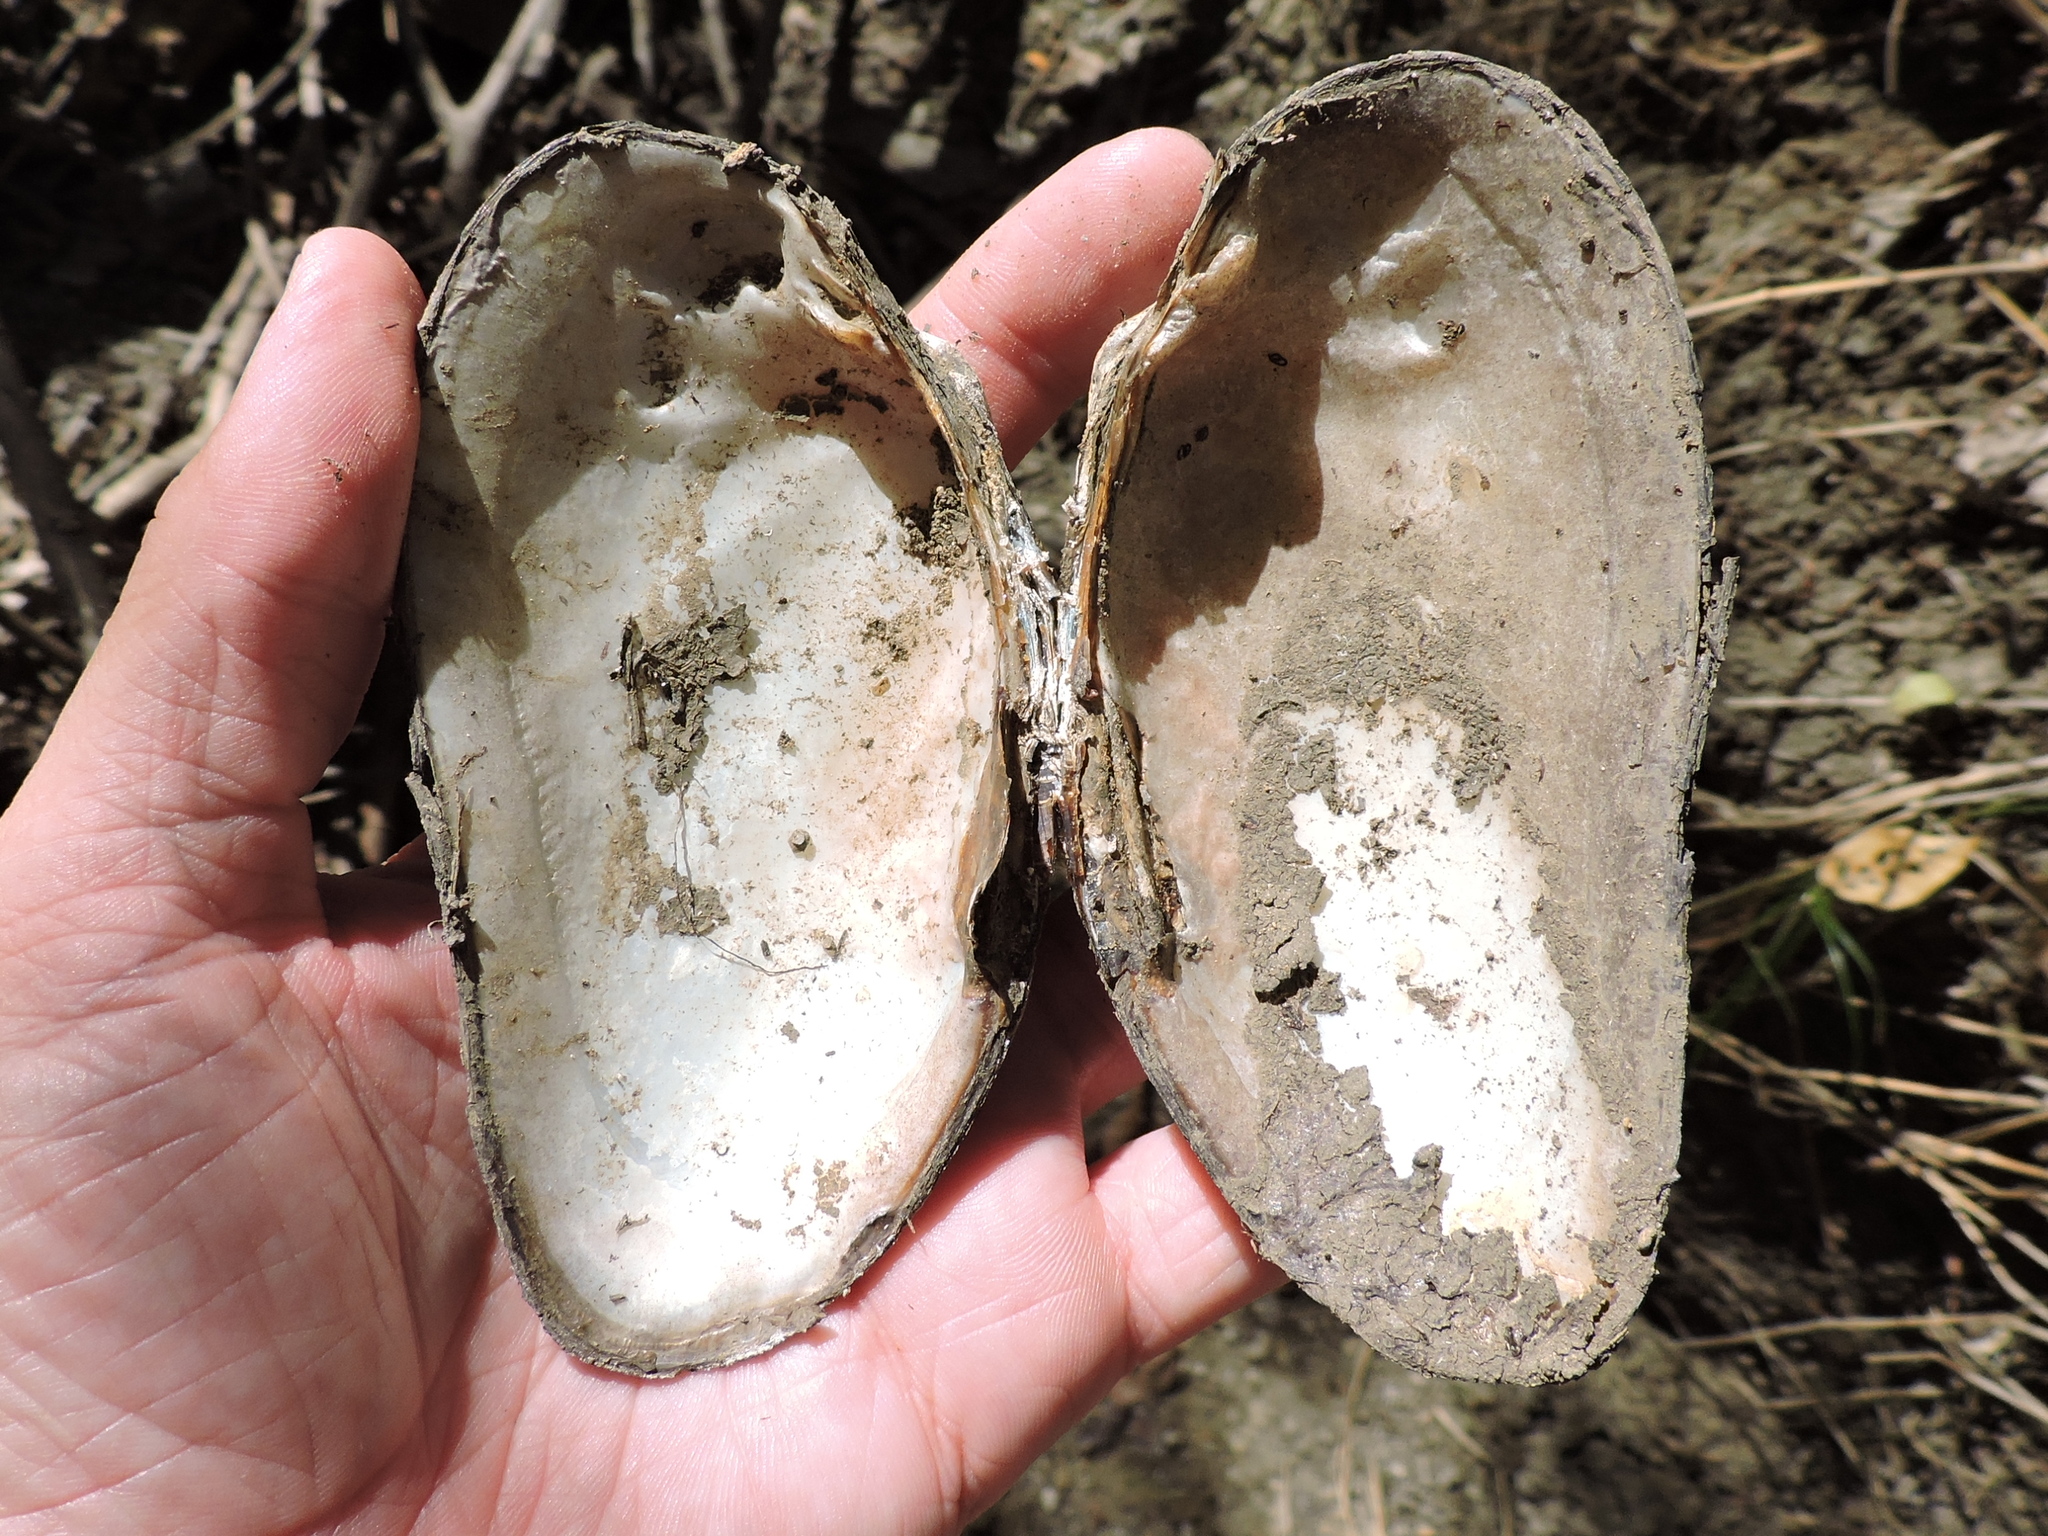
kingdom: Animalia
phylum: Mollusca
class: Bivalvia
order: Unionida
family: Unionidae
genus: Uniomerus
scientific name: Uniomerus declivis
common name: Tapered pondhorn
